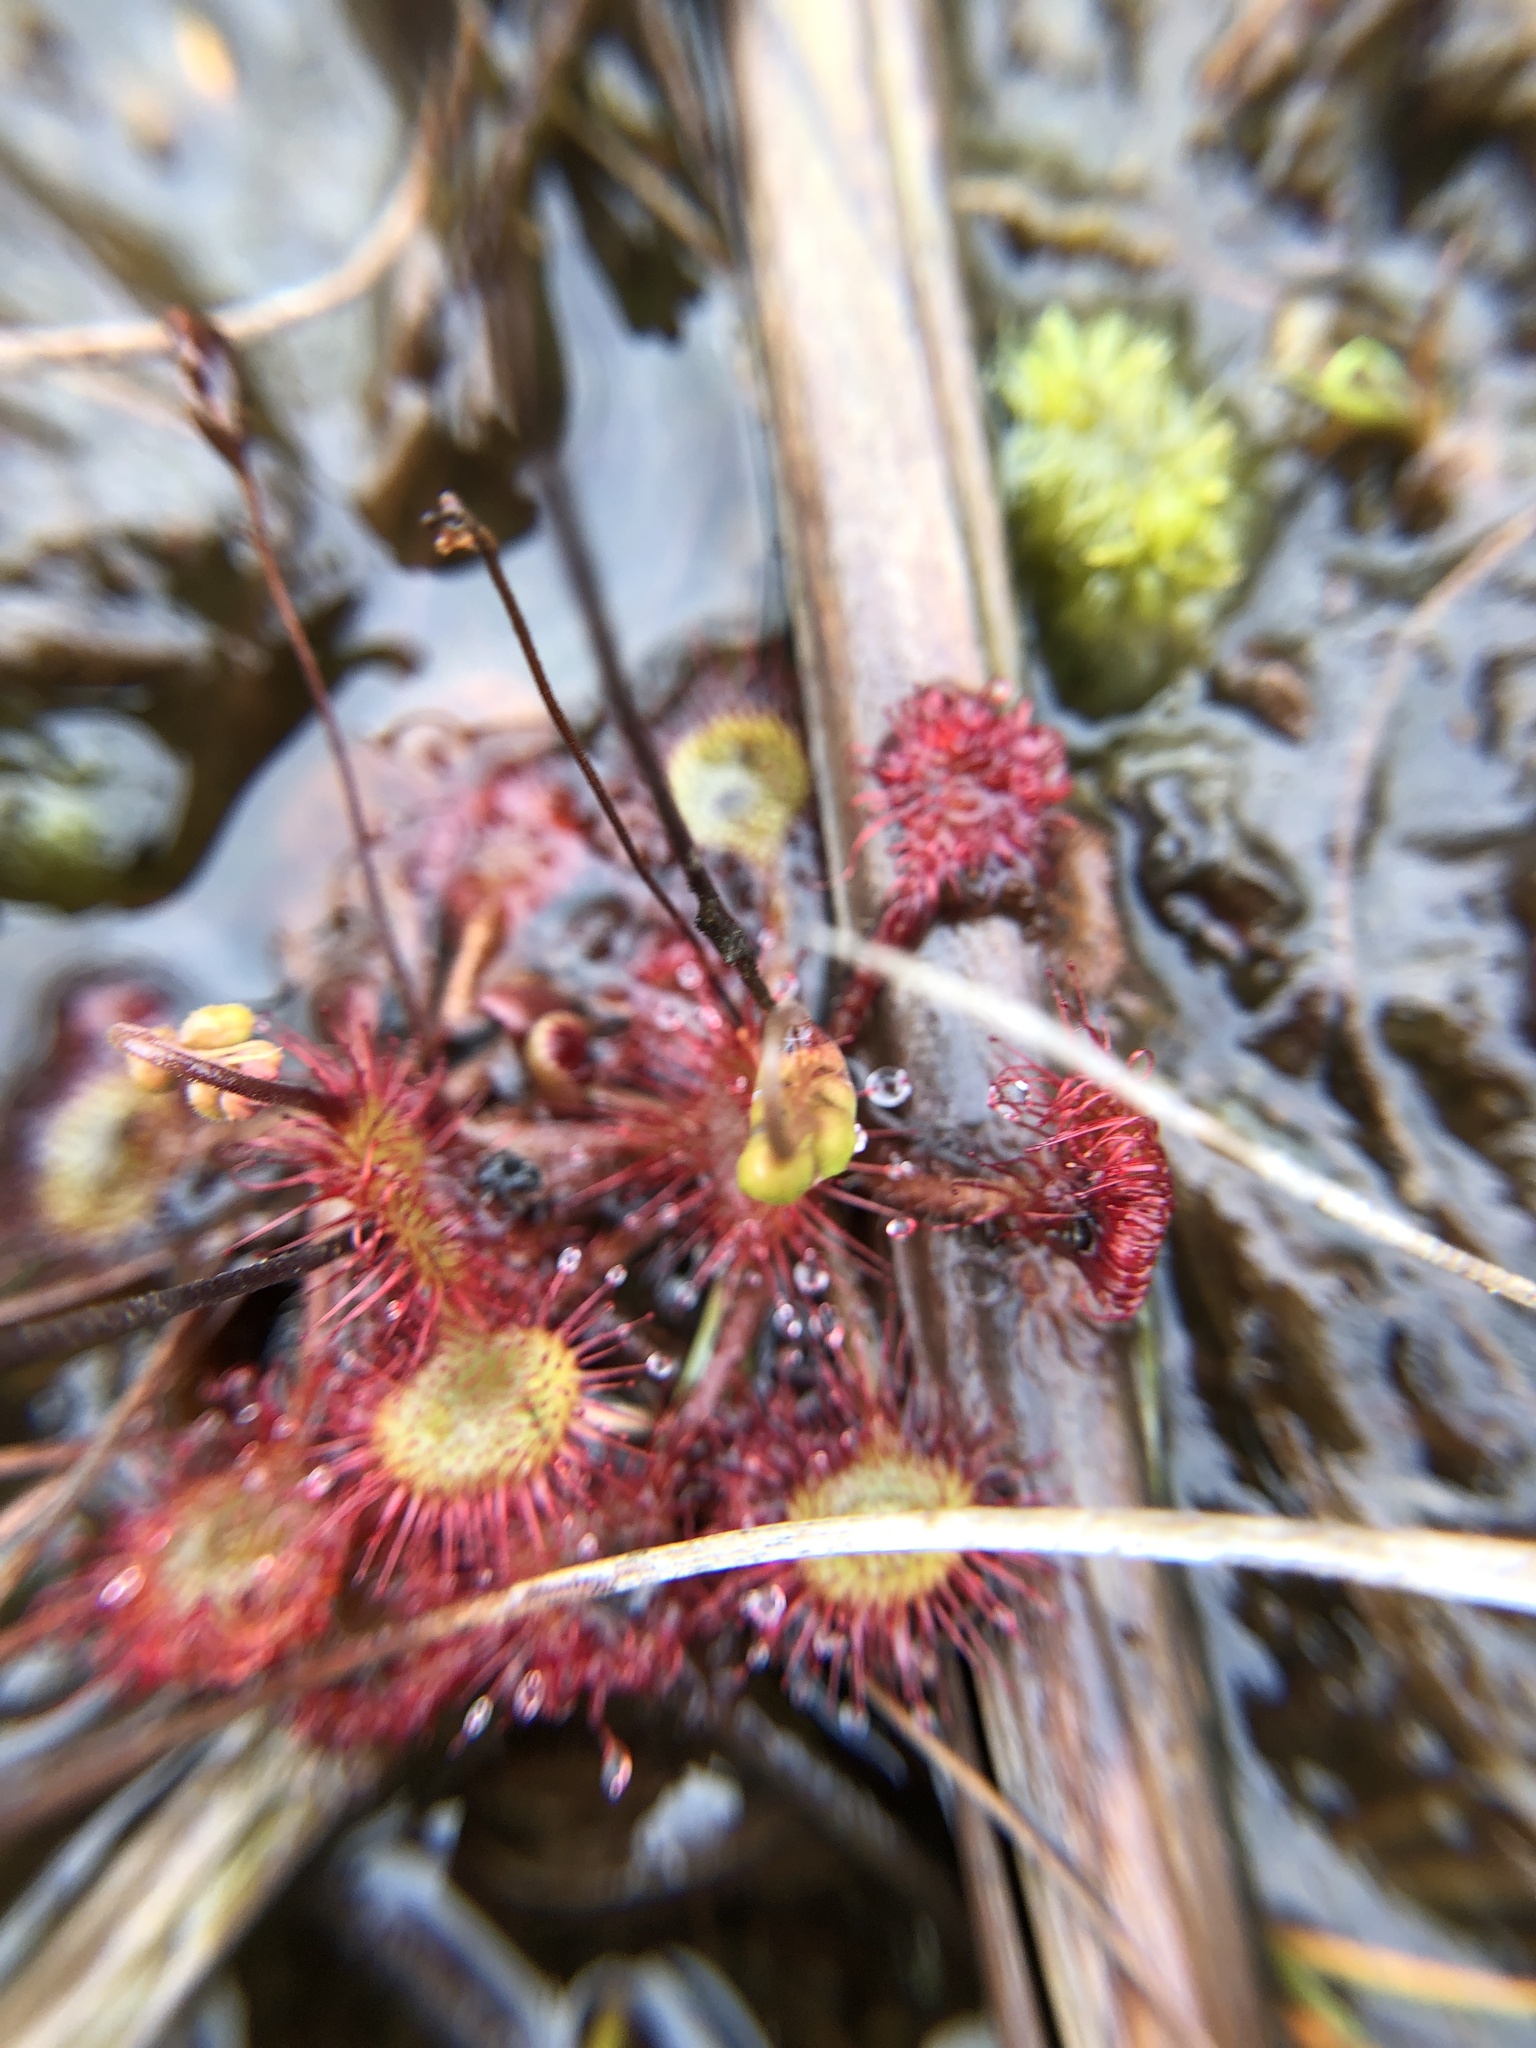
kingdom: Plantae
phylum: Tracheophyta
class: Magnoliopsida
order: Caryophyllales
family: Droseraceae
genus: Drosera
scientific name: Drosera rotundifolia
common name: Round-leaved sundew
